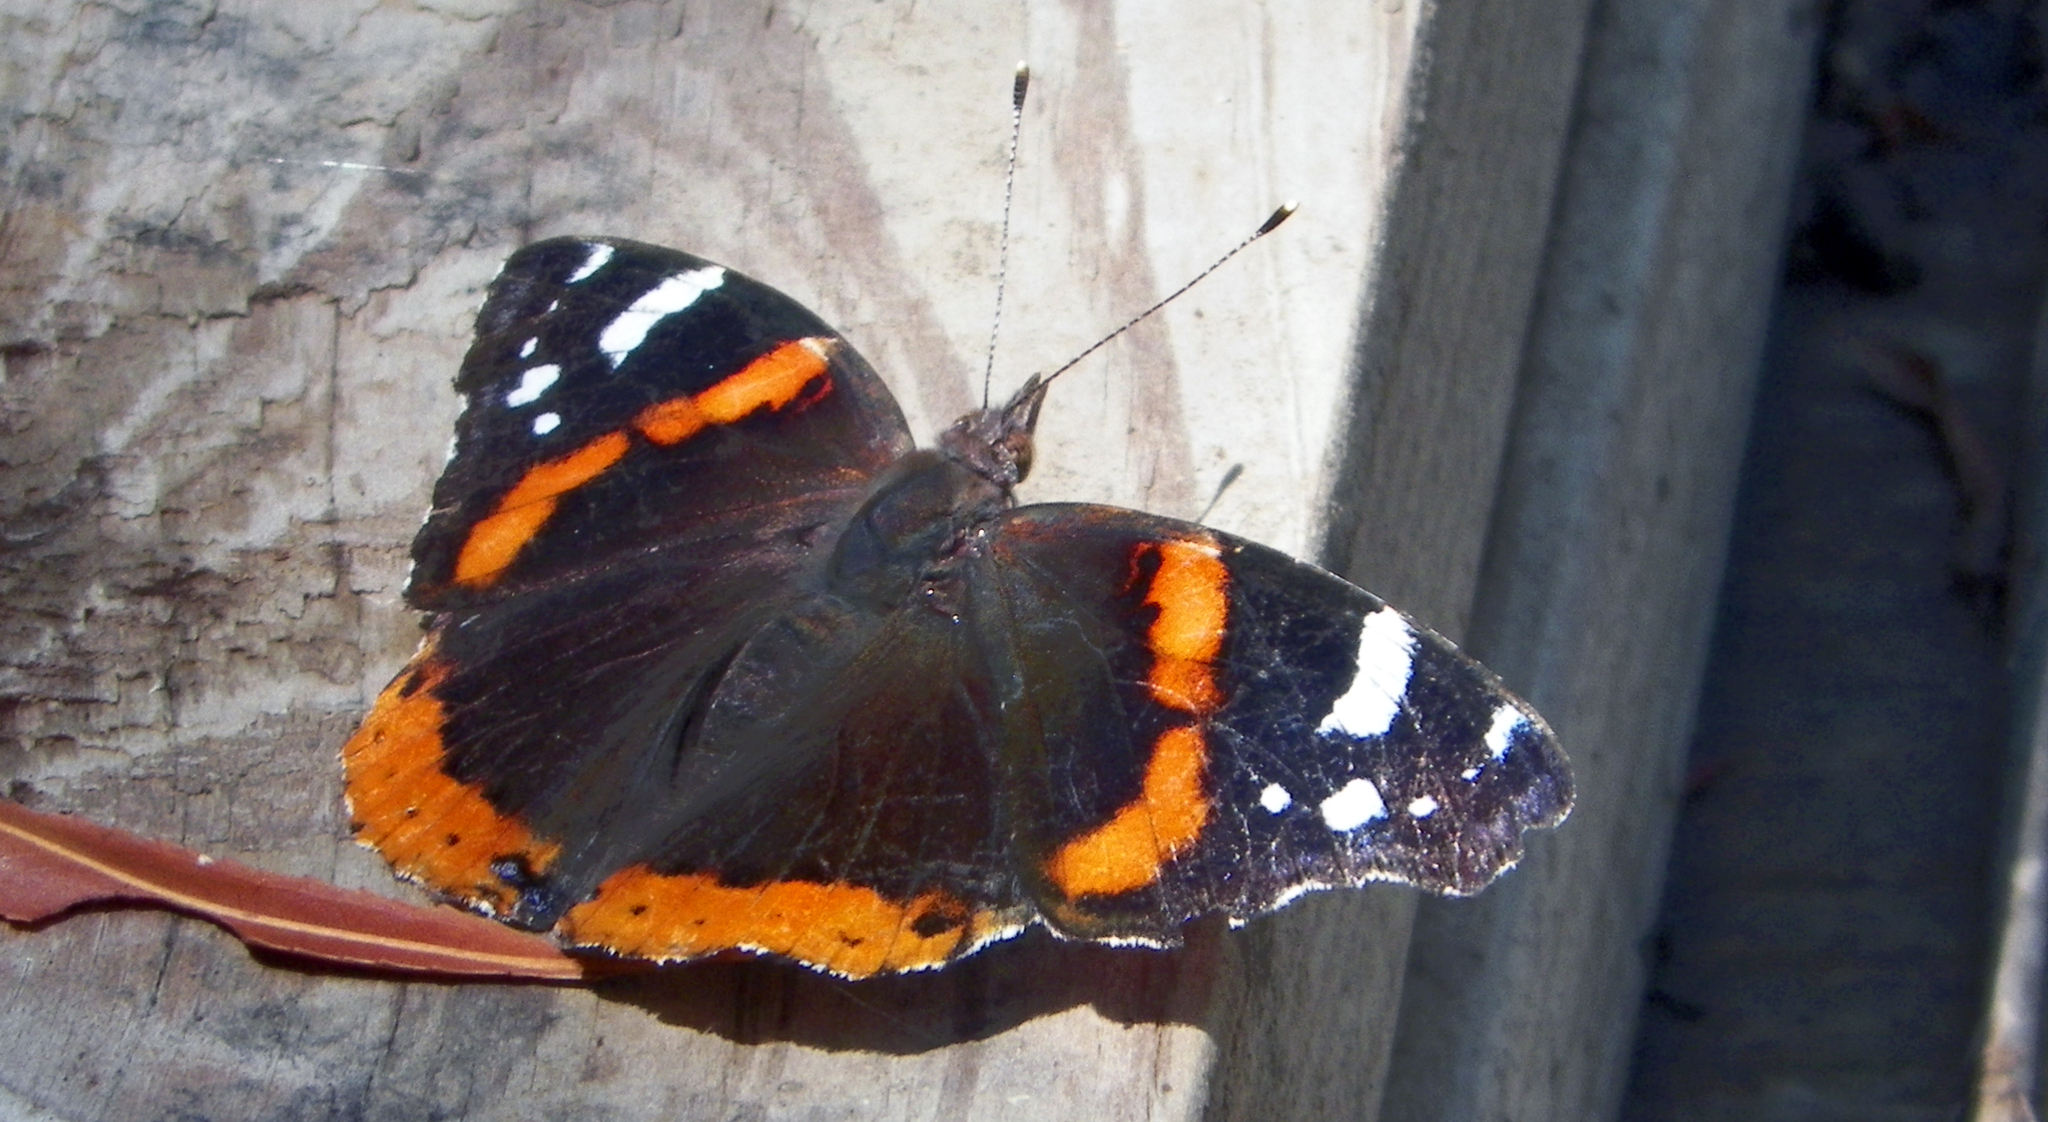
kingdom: Animalia
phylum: Arthropoda
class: Insecta
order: Lepidoptera
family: Nymphalidae
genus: Vanessa
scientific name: Vanessa atalanta
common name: Red admiral
